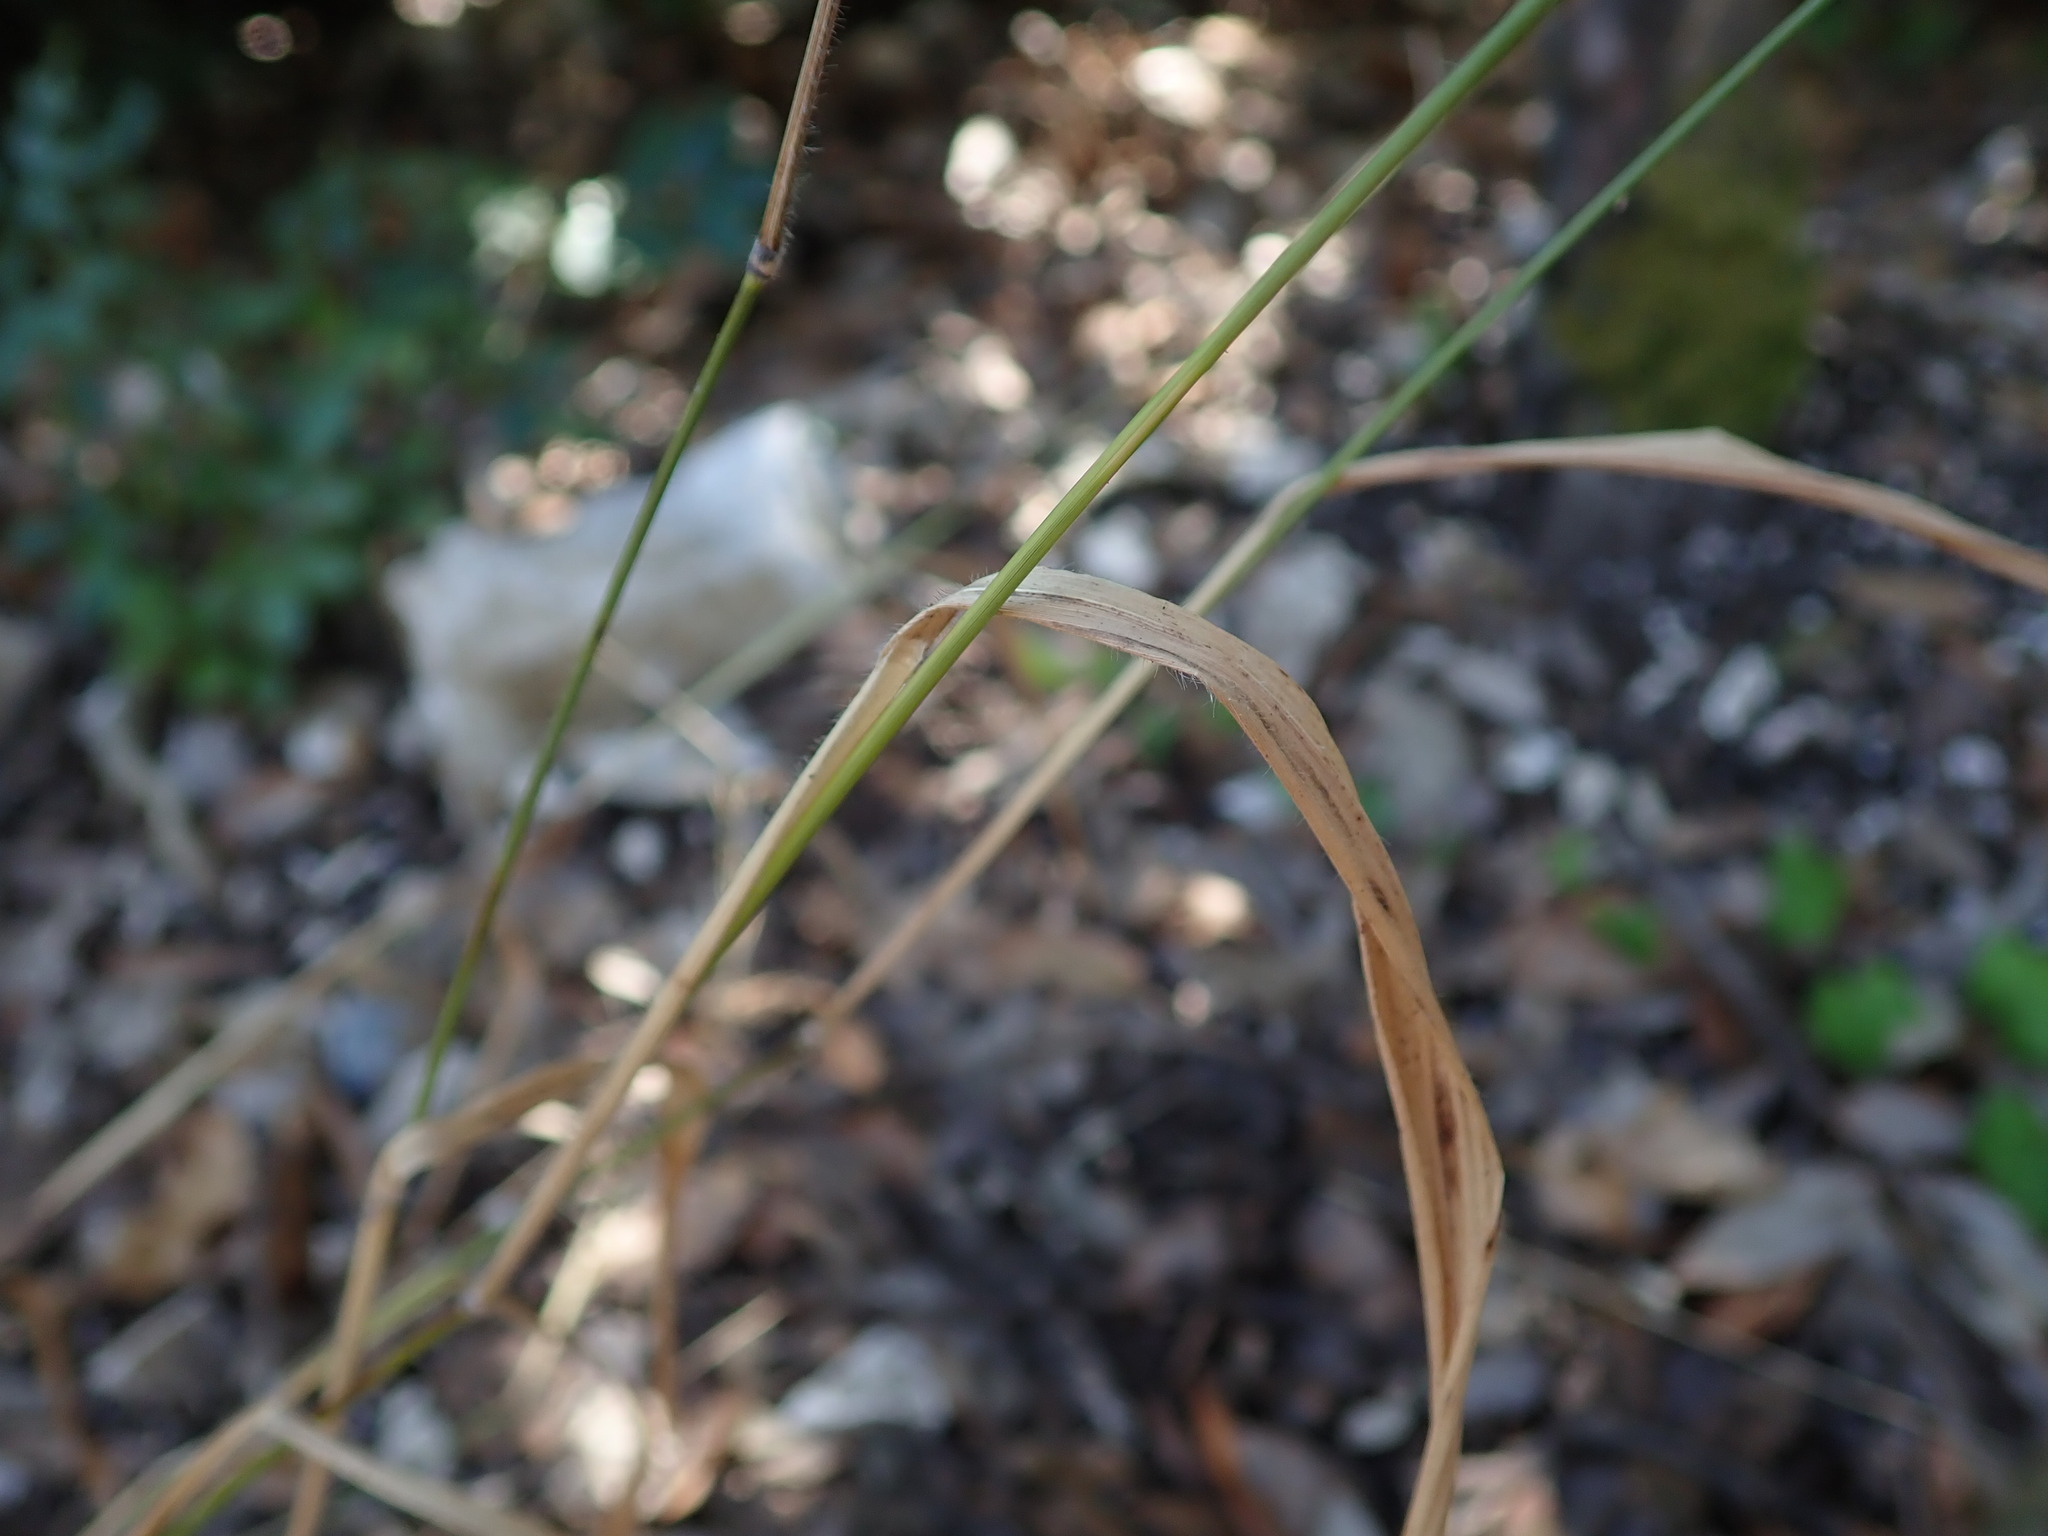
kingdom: Plantae
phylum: Tracheophyta
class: Liliopsida
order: Poales
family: Poaceae
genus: Brachypodium
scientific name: Brachypodium sylvaticum
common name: False-brome
